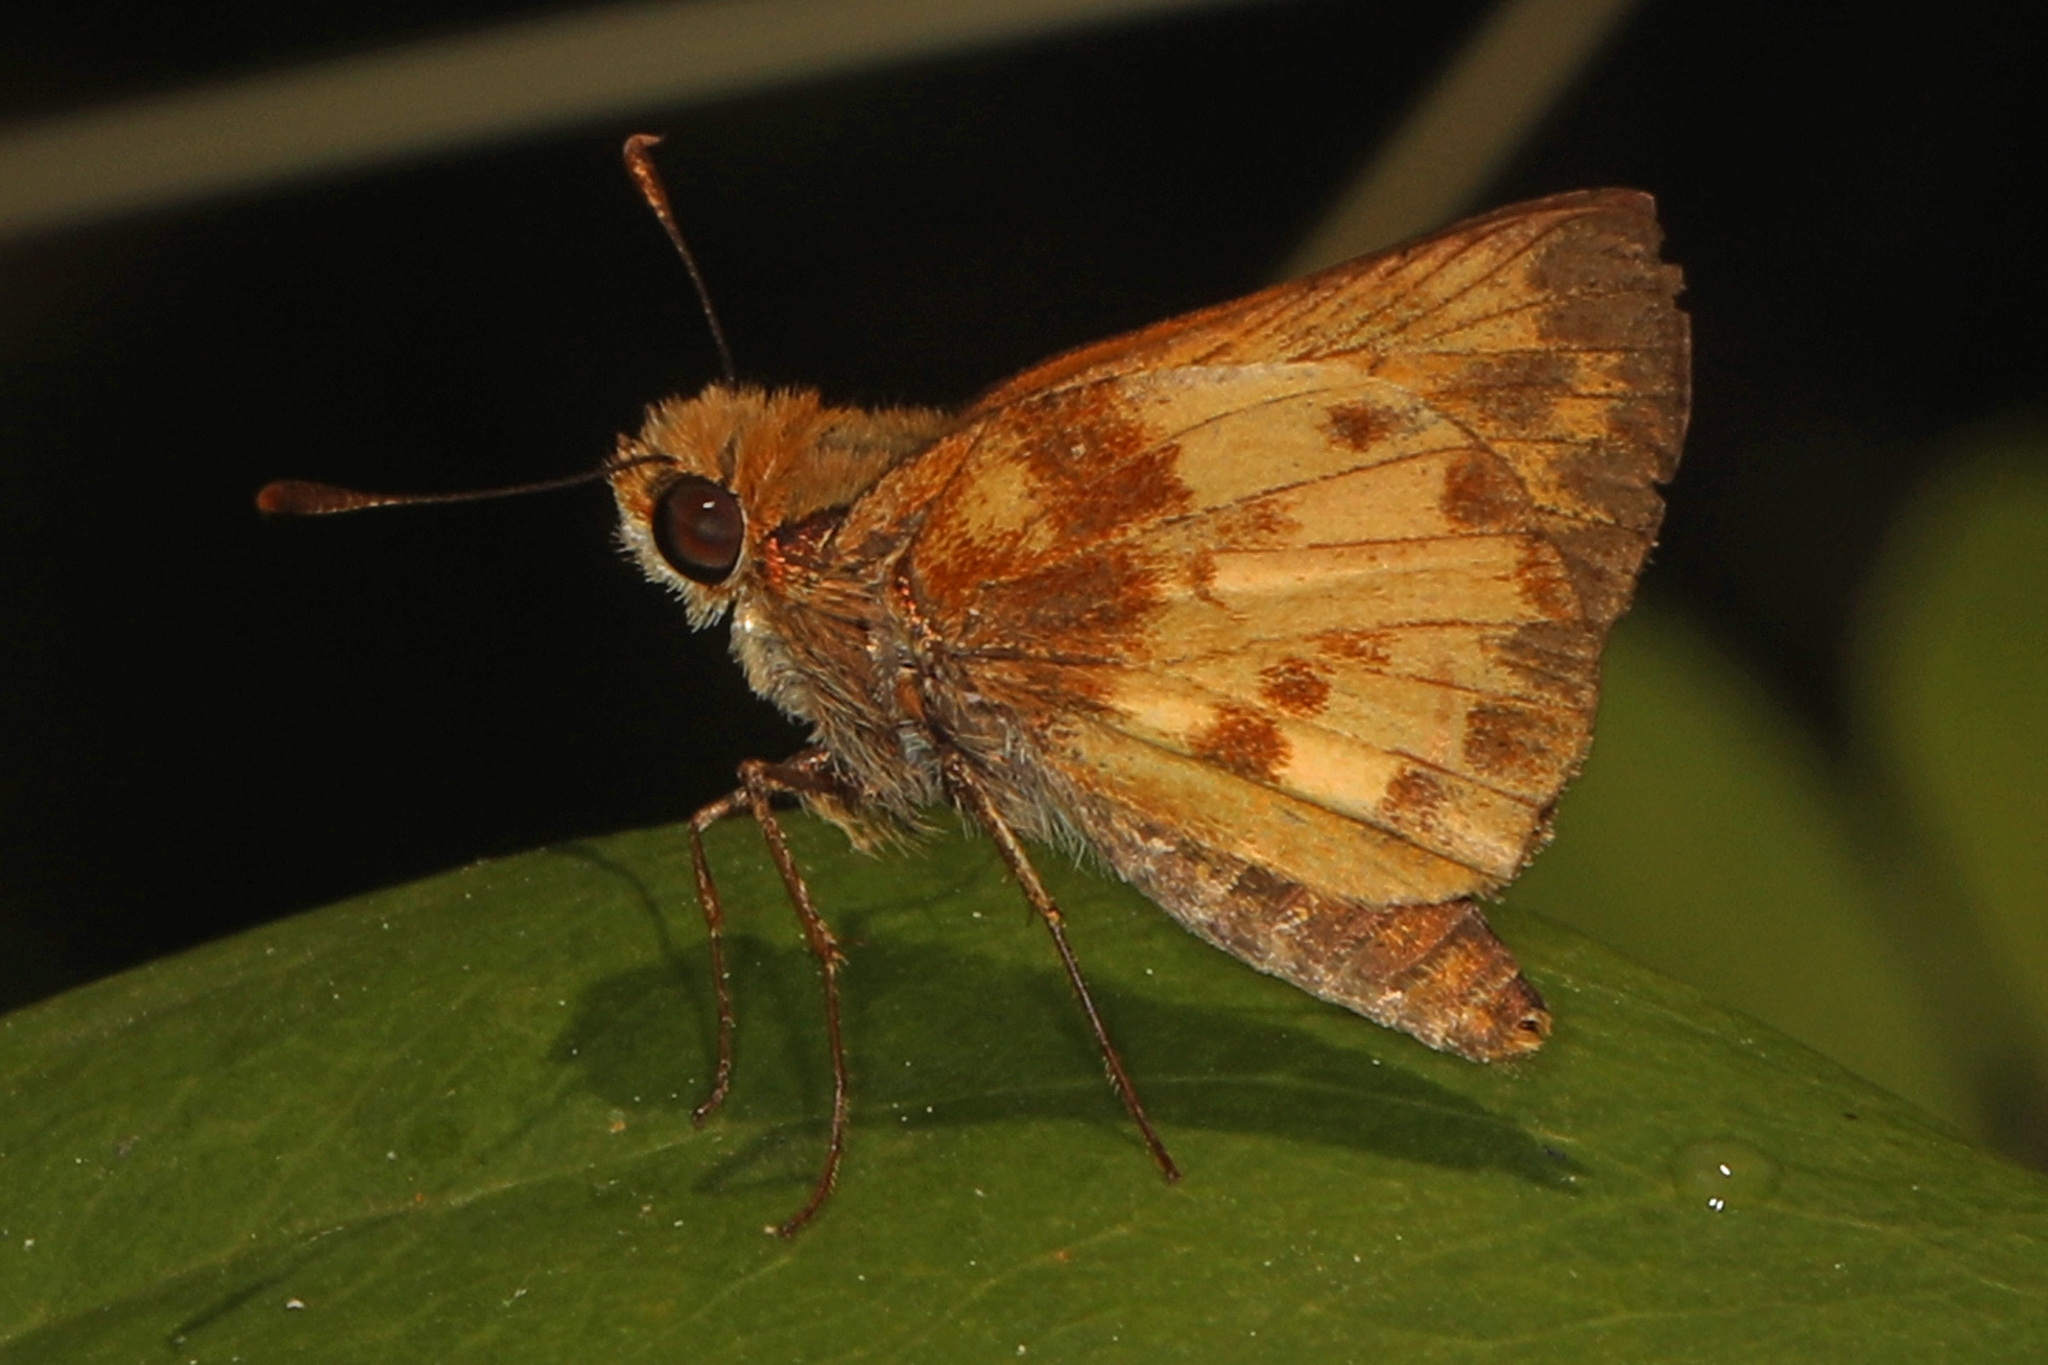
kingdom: Animalia
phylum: Arthropoda
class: Insecta
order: Lepidoptera
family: Hesperiidae
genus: Lon
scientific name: Lon zabulon
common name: Zabulon skipper
